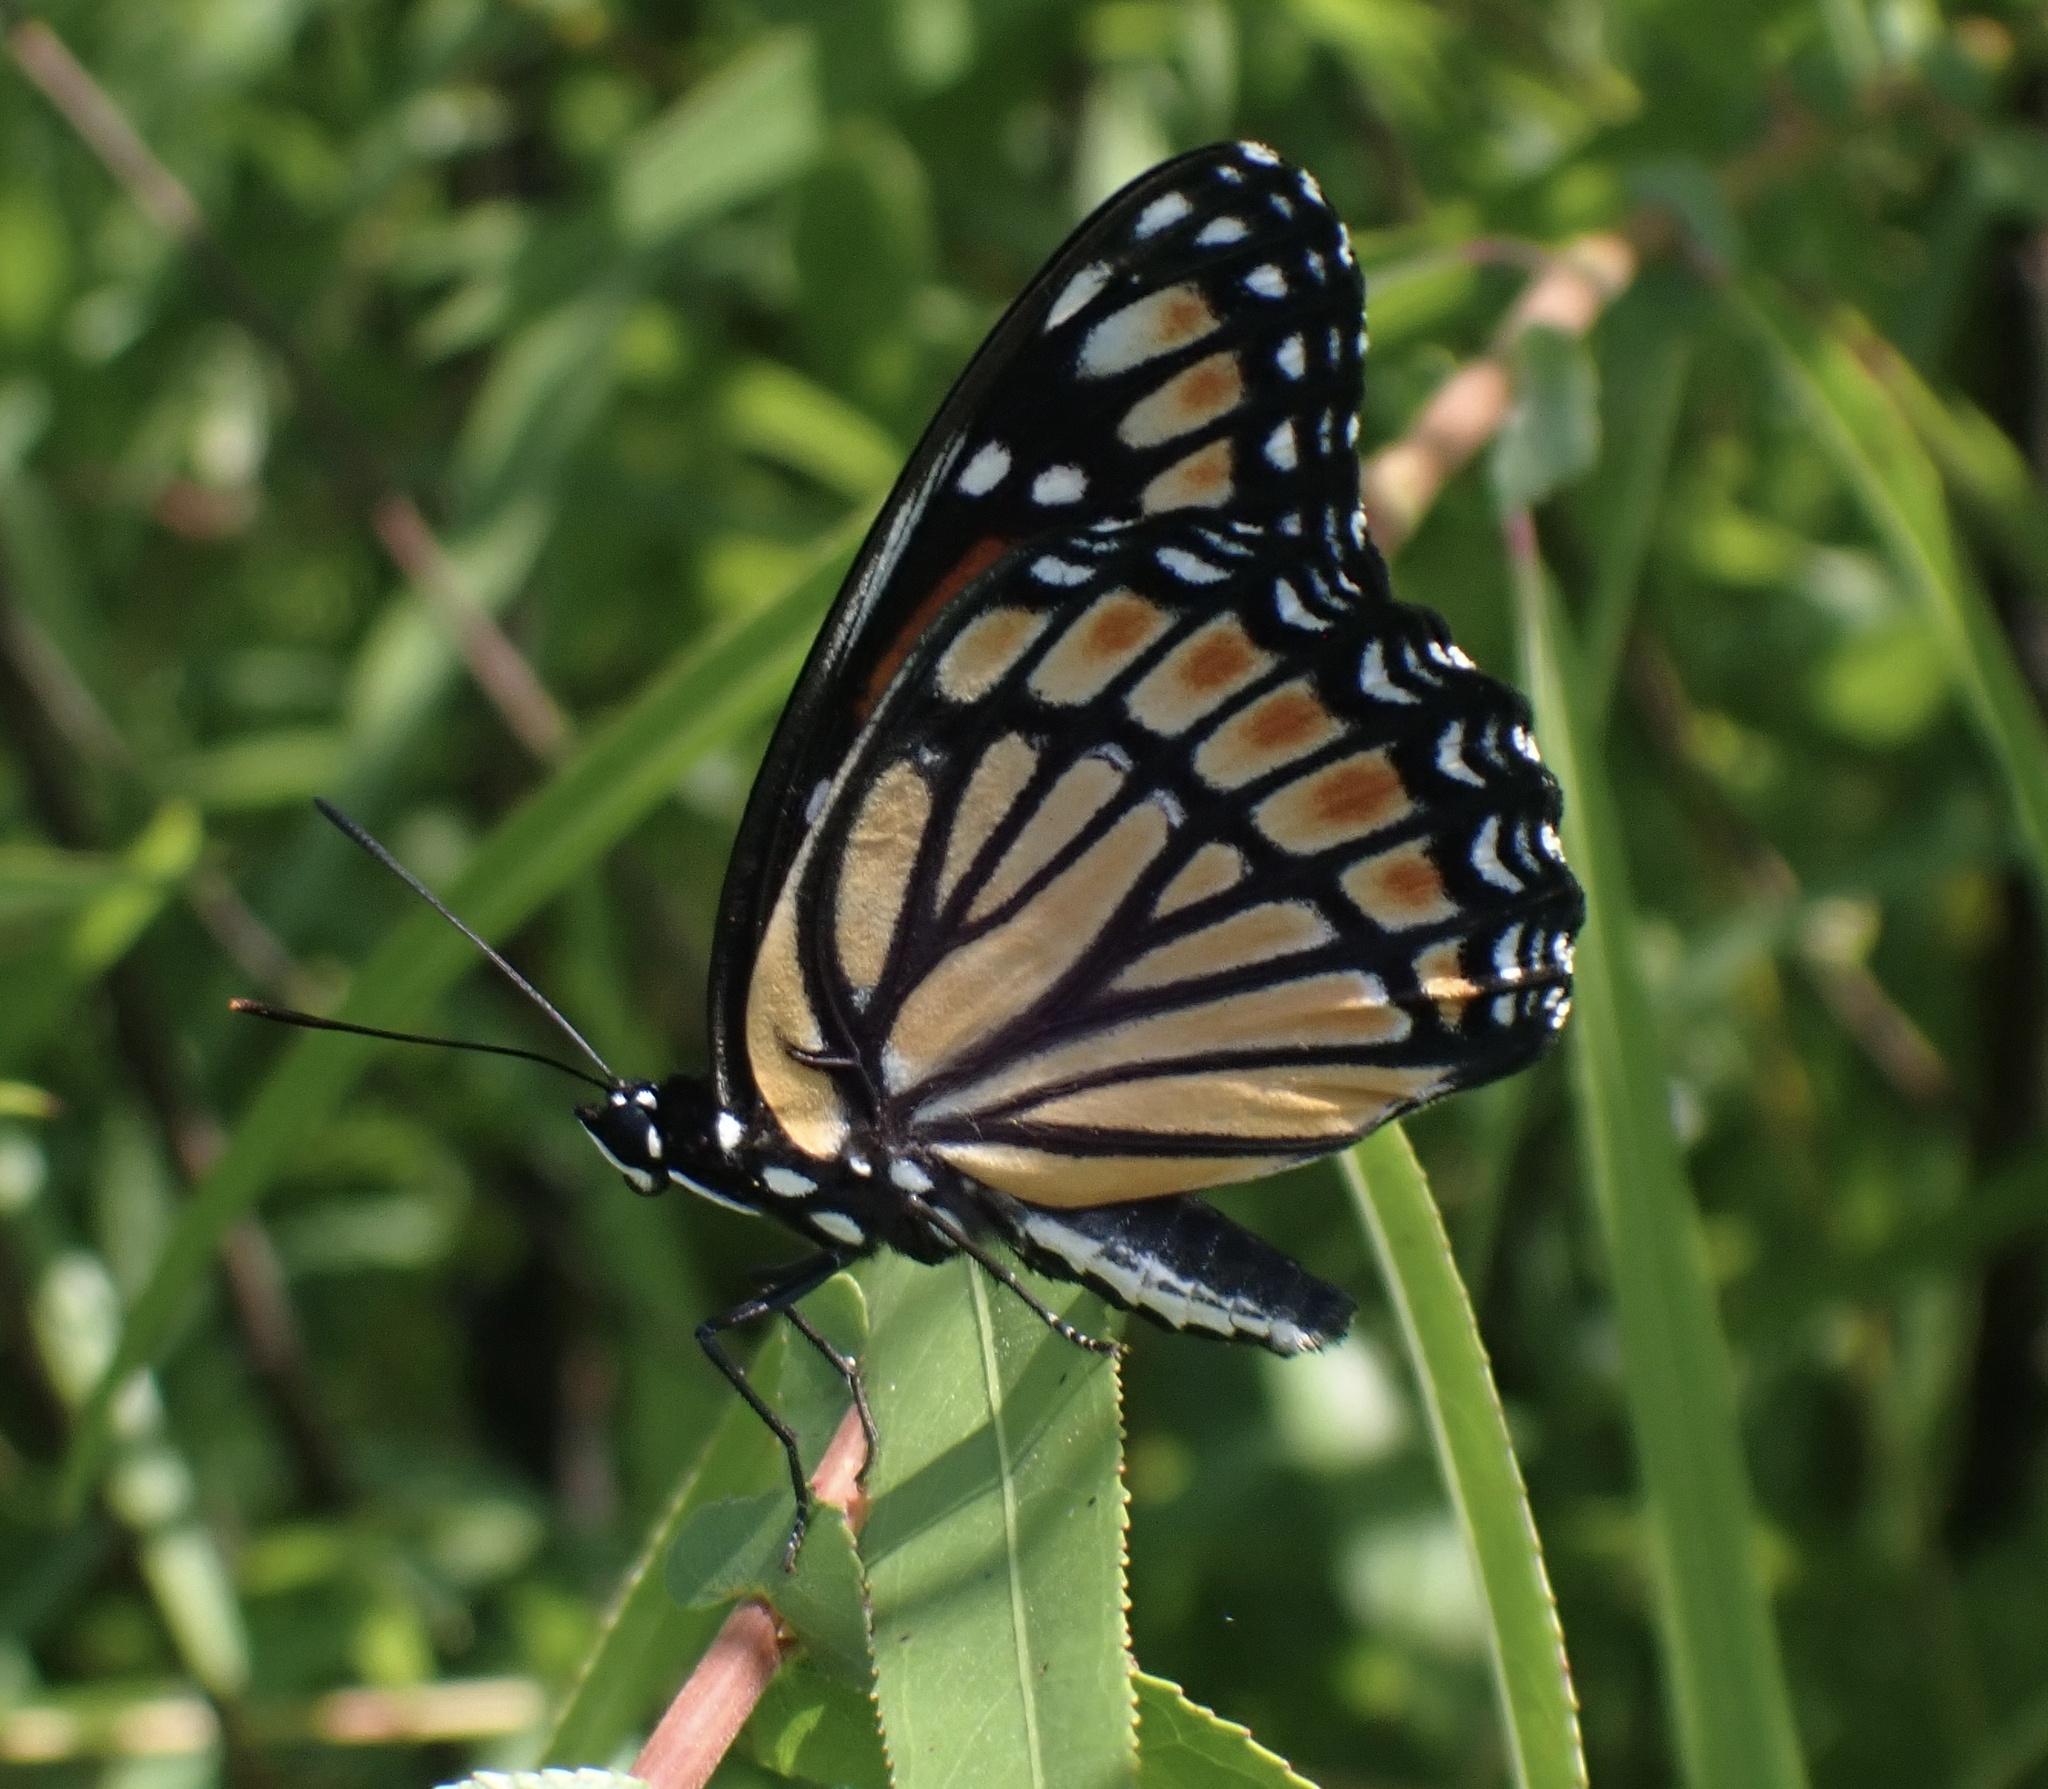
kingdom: Animalia
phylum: Arthropoda
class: Insecta
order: Lepidoptera
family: Nymphalidae
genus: Limenitis
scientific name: Limenitis archippus
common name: Viceroy
